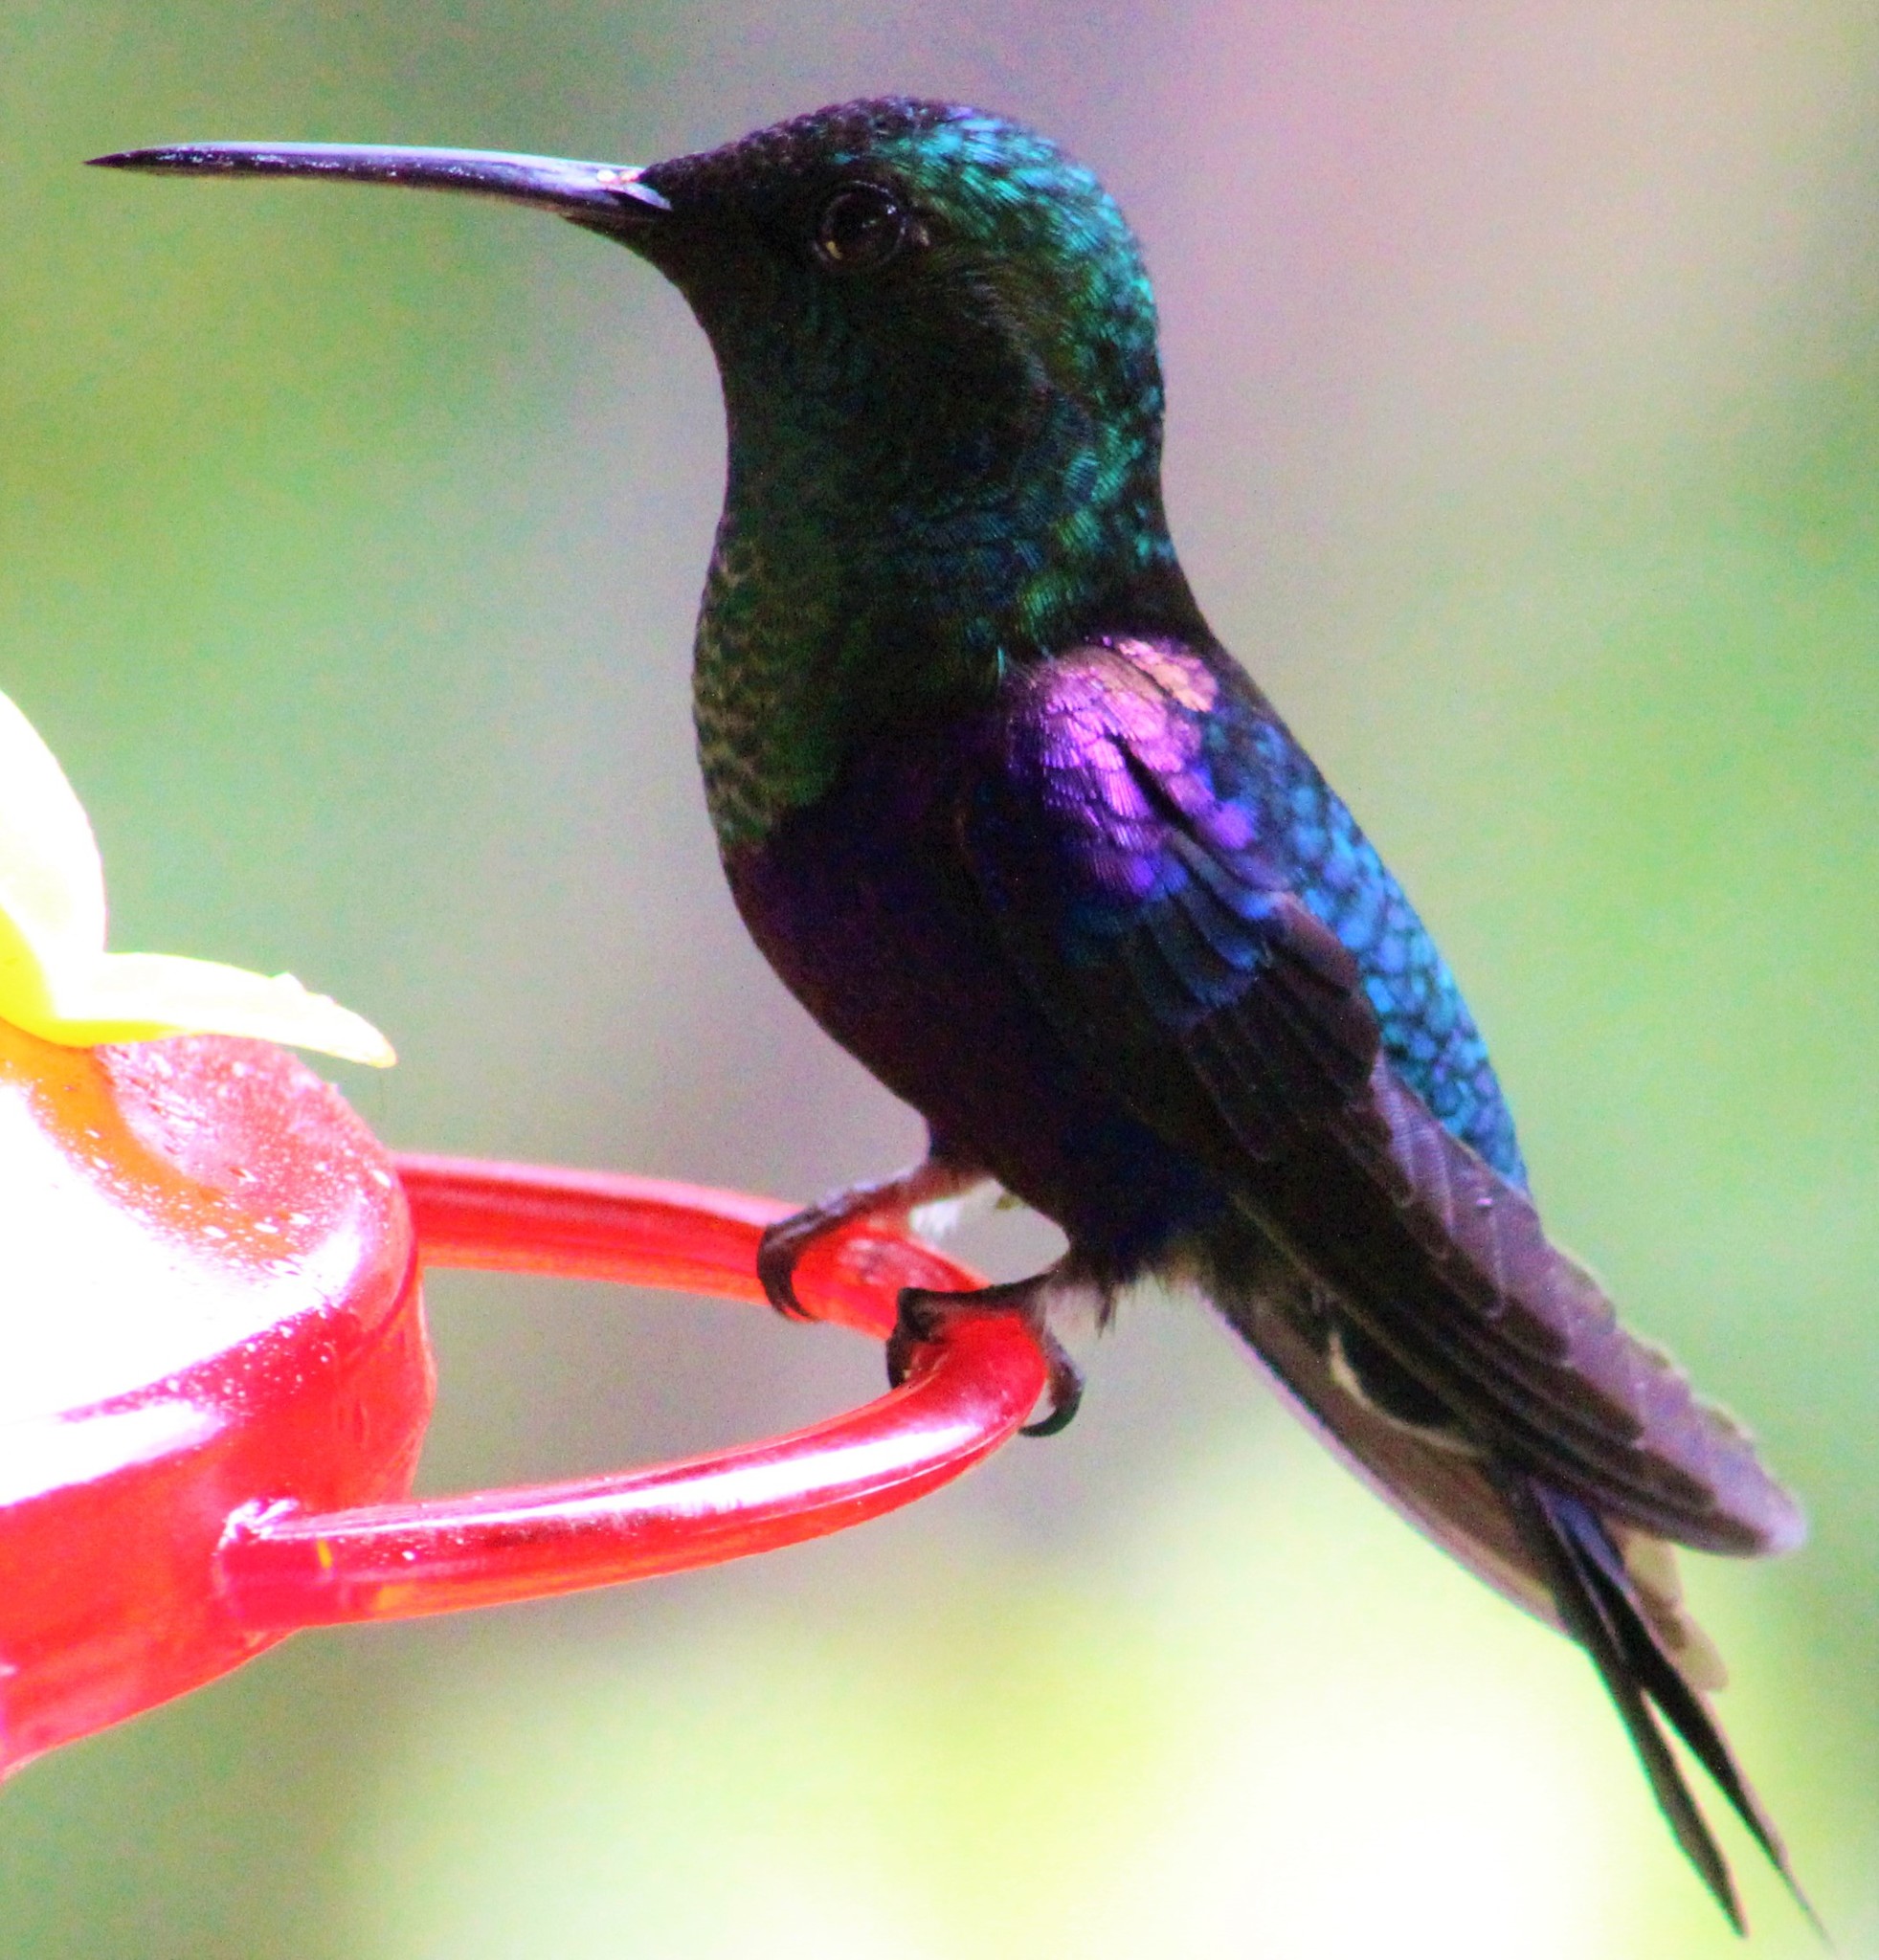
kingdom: Animalia
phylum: Chordata
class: Aves
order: Apodiformes
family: Trochilidae
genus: Thalurania
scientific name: Thalurania colombica
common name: Crowned woodnymph
